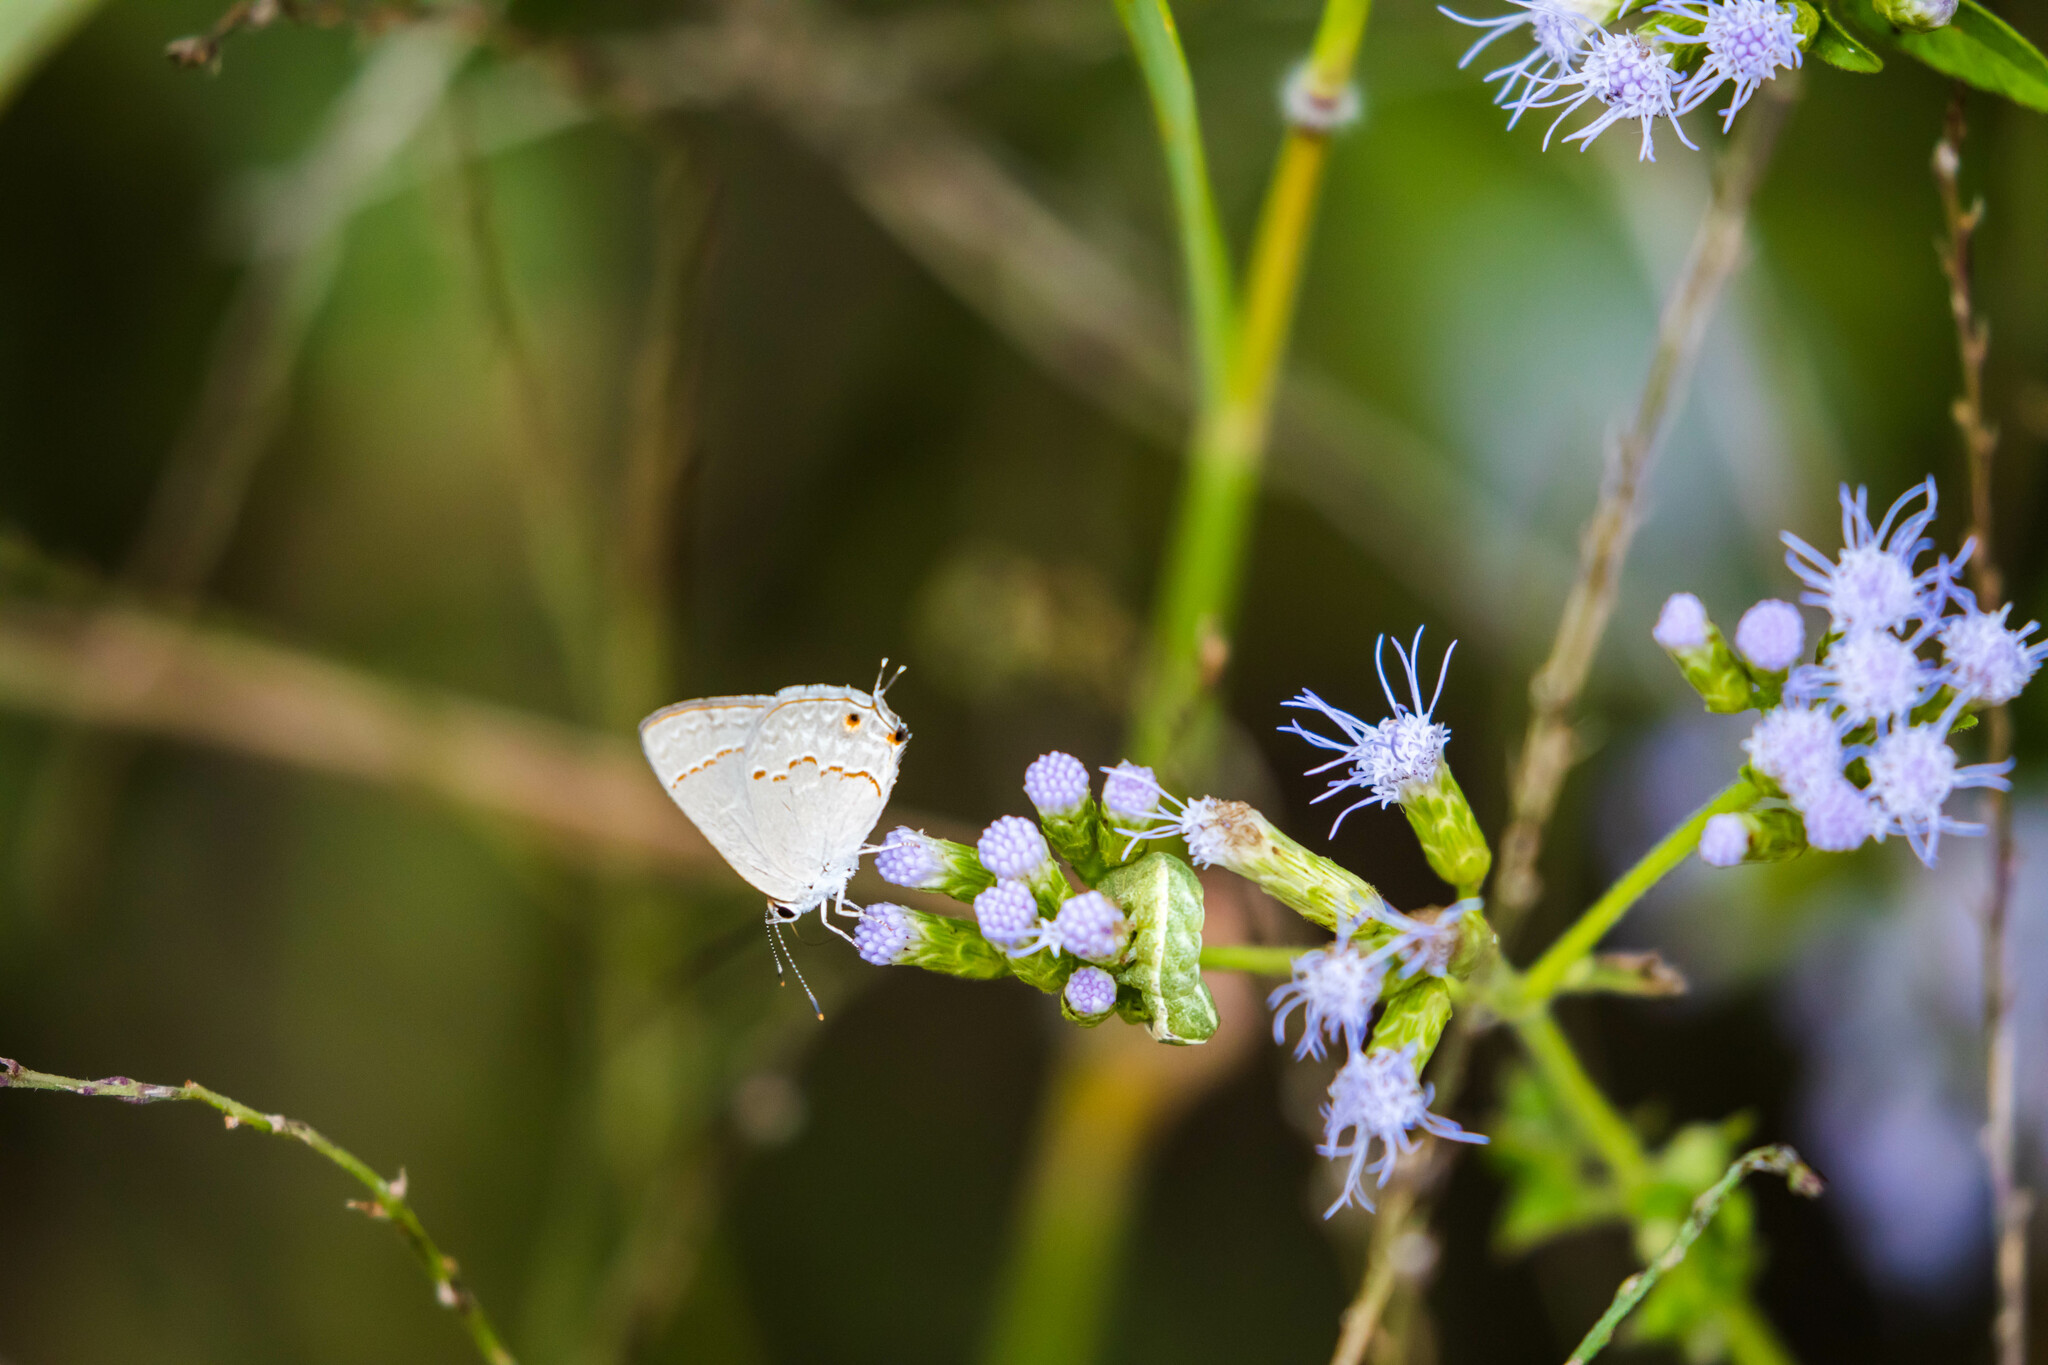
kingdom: Animalia
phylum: Arthropoda
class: Insecta
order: Lepidoptera
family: Lycaenidae
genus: Thecla
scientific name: Thecla rufofusca
